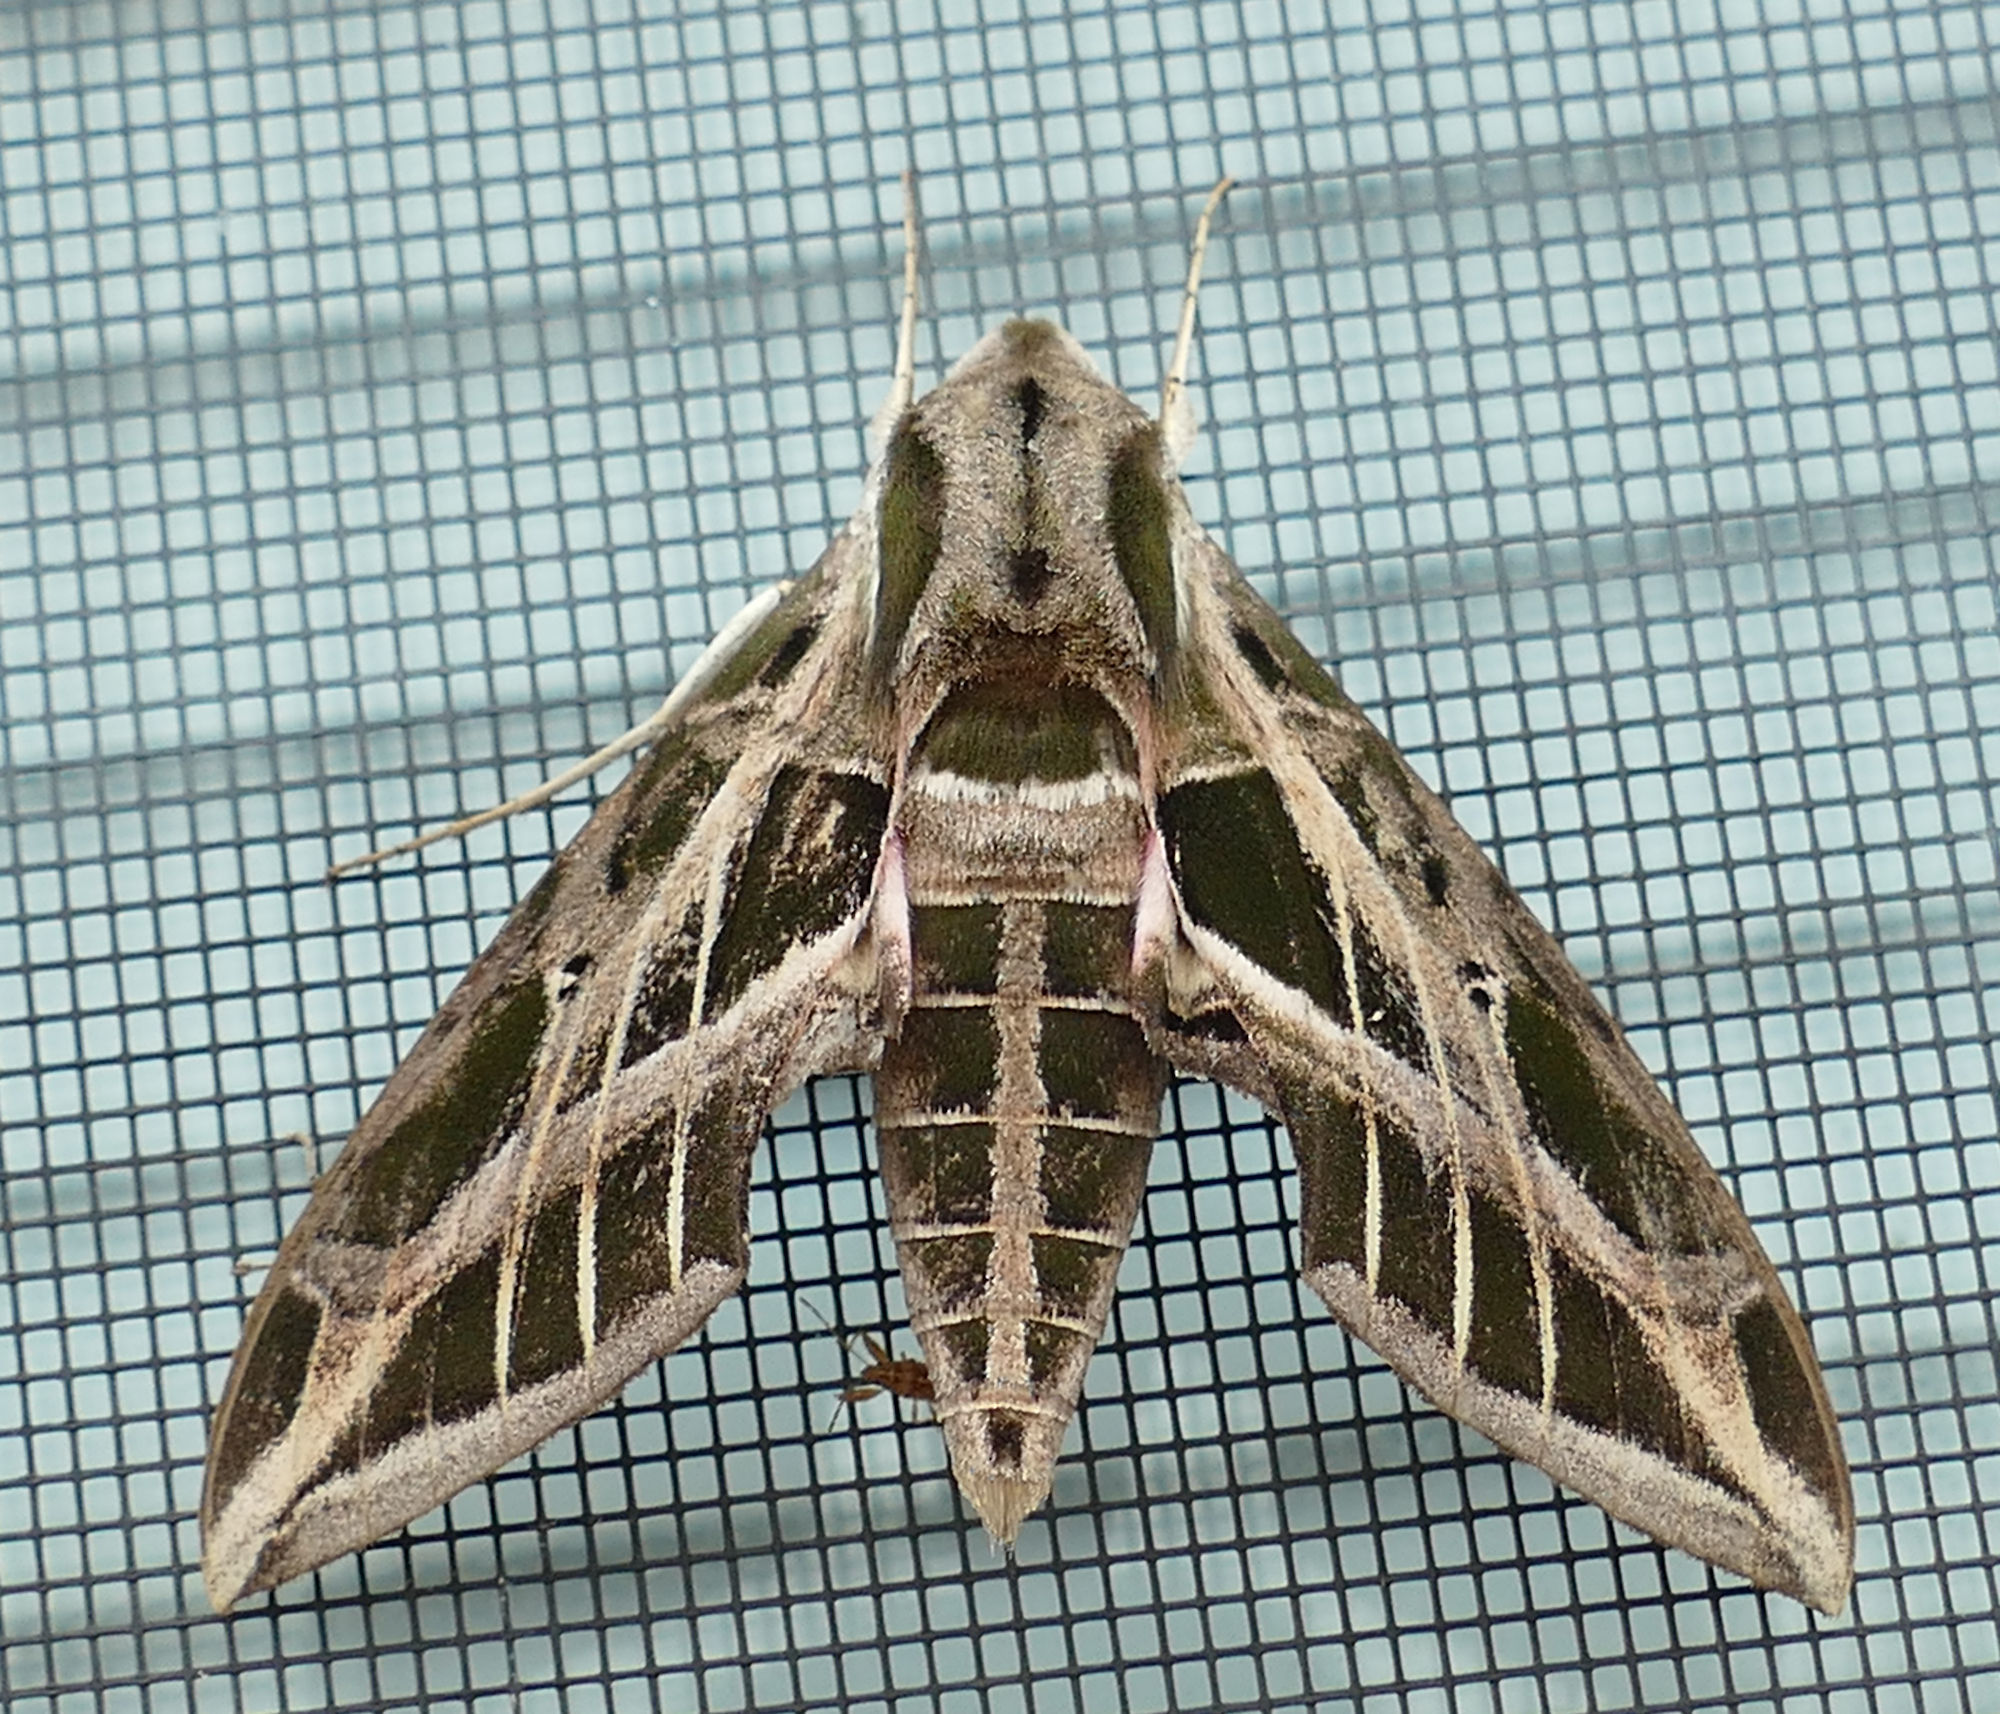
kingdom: Animalia
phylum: Arthropoda
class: Insecta
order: Lepidoptera
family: Sphingidae
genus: Eumorpha
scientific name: Eumorpha vitis
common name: Vine sphinx
